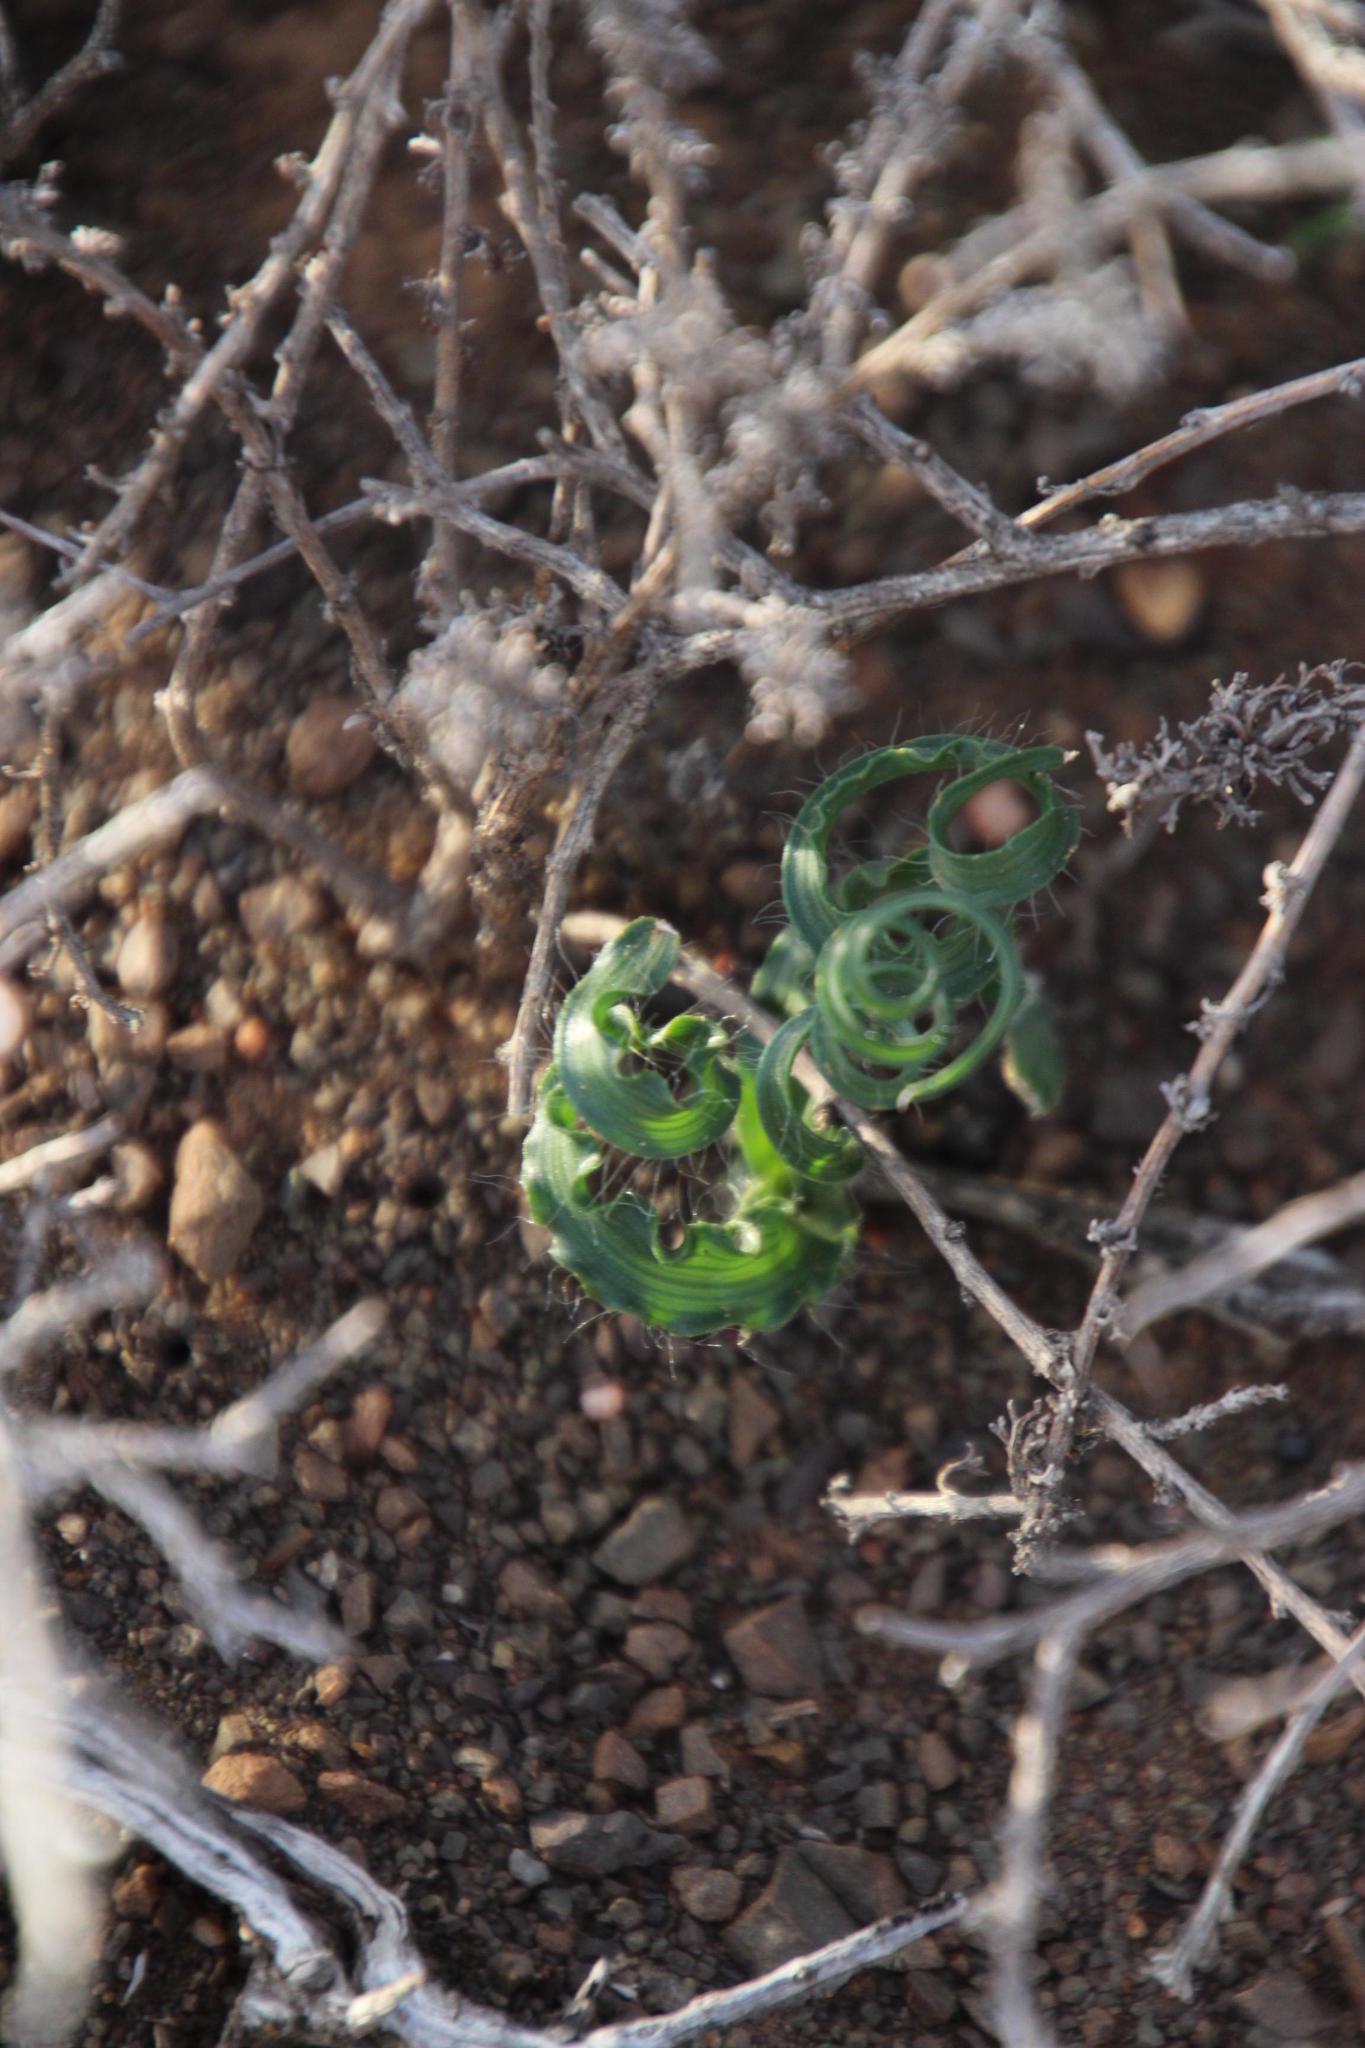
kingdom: Plantae
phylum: Tracheophyta
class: Liliopsida
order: Asparagales
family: Asparagaceae
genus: Dipcadi
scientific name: Dipcadi ciliare
